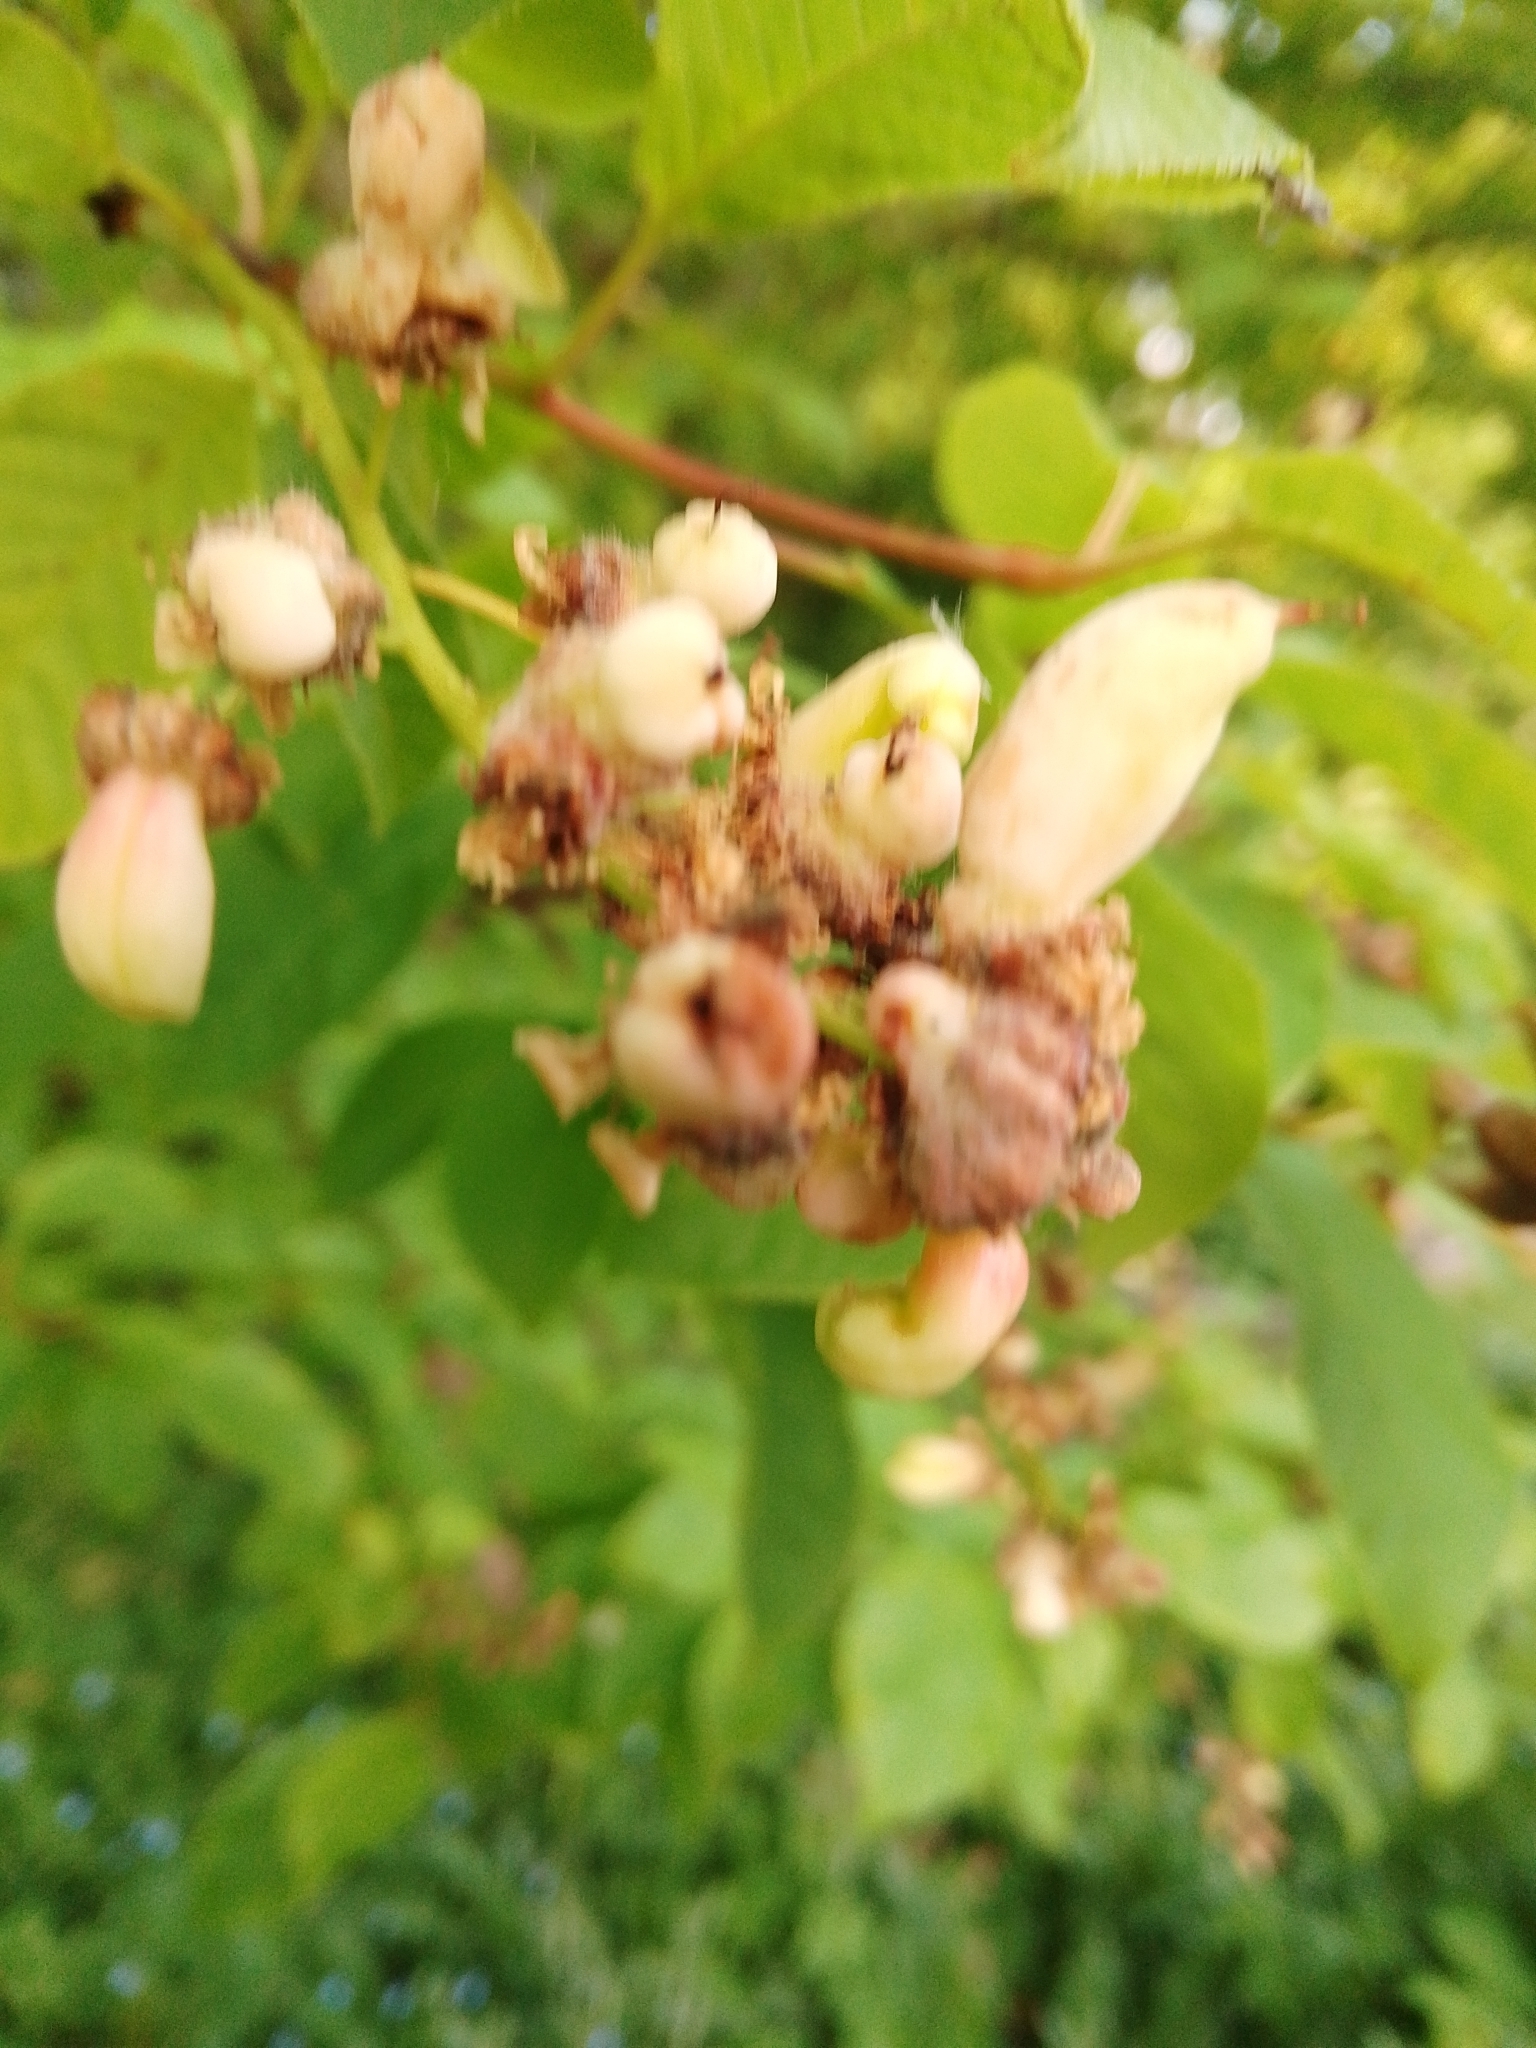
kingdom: Fungi
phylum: Ascomycota
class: Taphrinomycetes
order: Taphrinales
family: Taphrinaceae
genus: Taphrina
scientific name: Taphrina padi
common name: Bird cherry pocket
